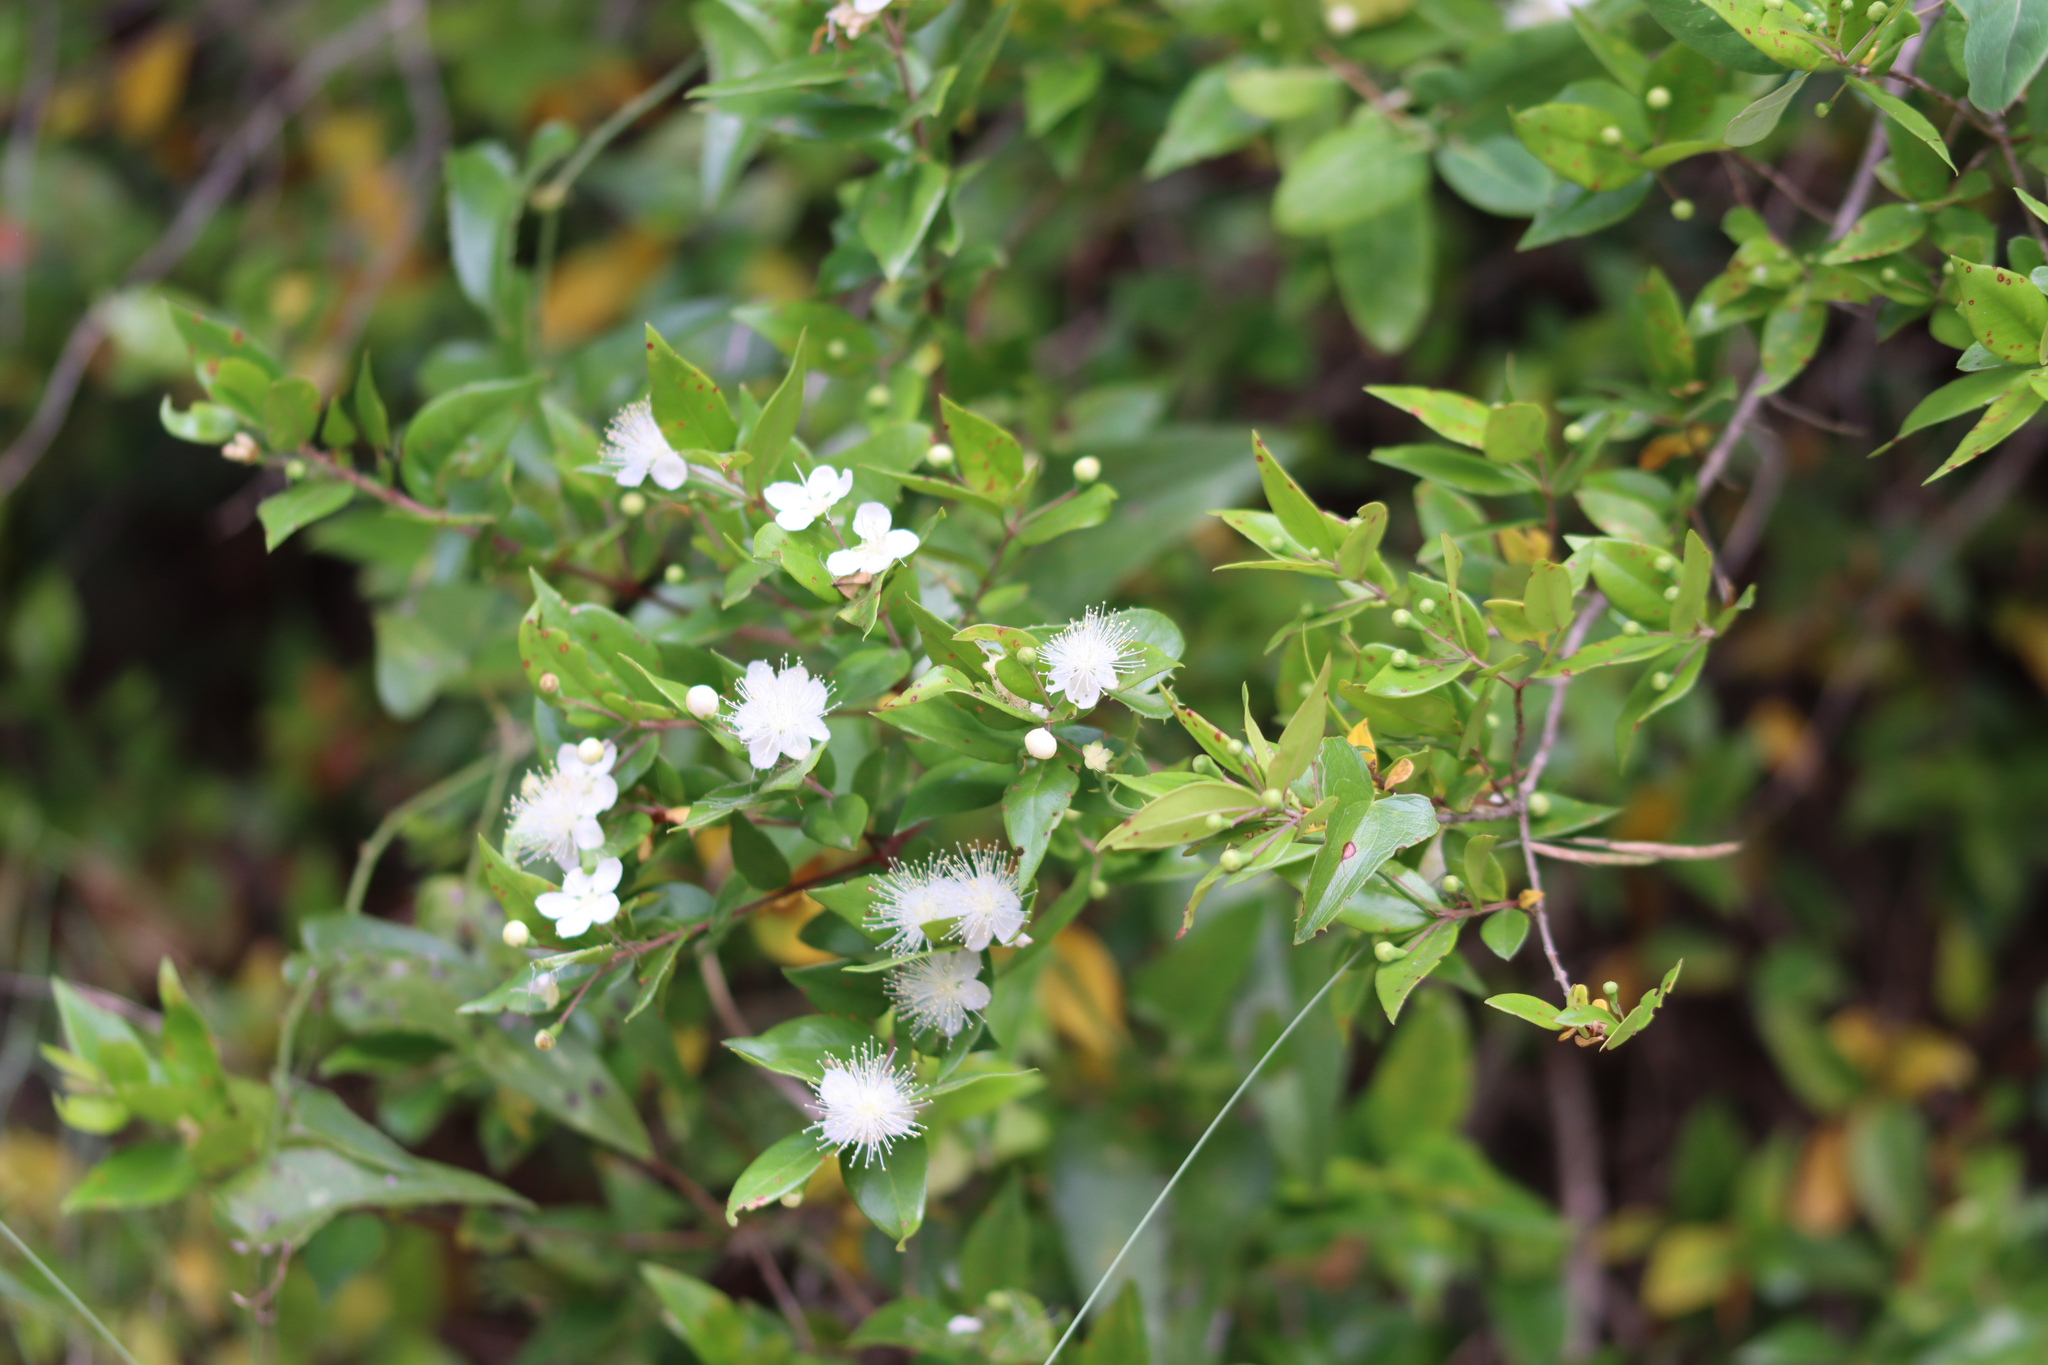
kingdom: Plantae
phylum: Tracheophyta
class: Magnoliopsida
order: Myrtales
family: Myrtaceae
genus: Myrtus
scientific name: Myrtus communis
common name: Myrtle
